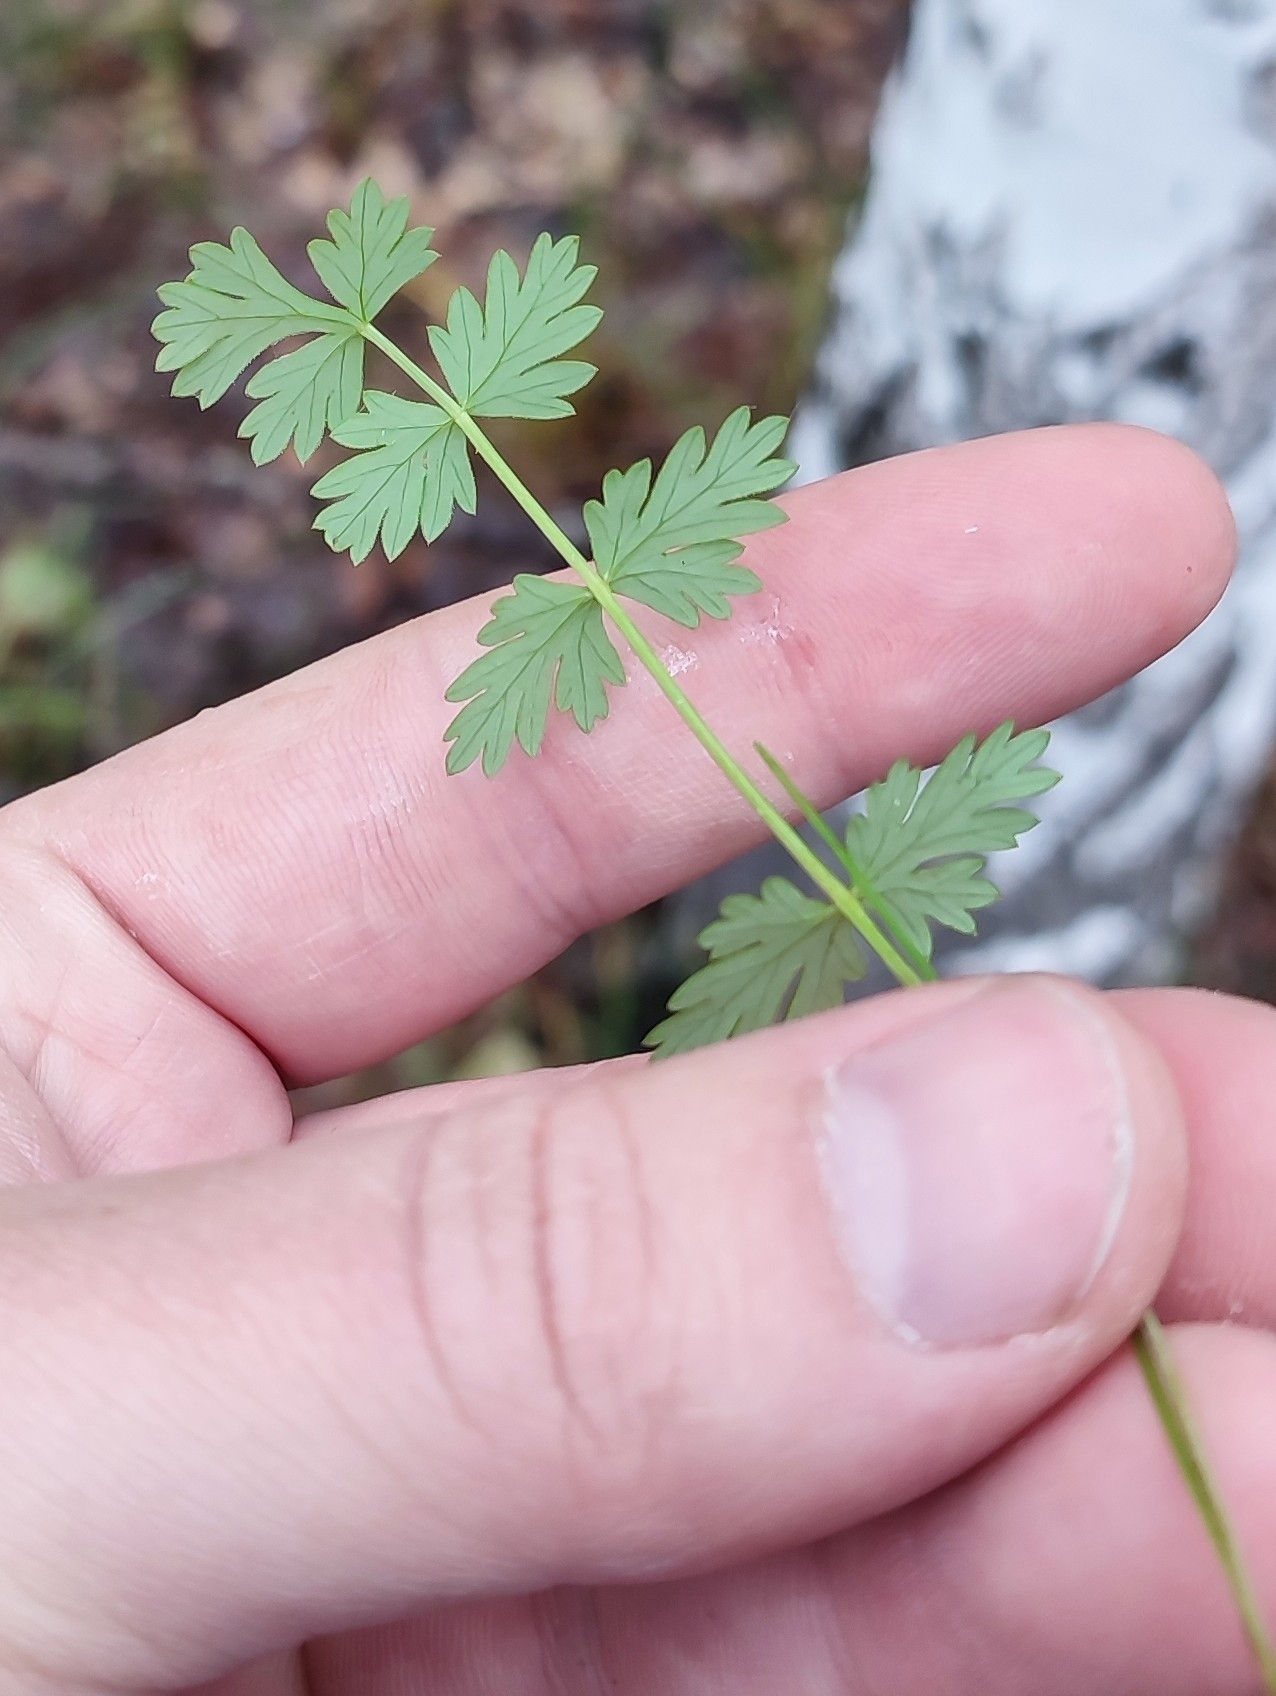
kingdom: Plantae
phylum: Tracheophyta
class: Magnoliopsida
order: Apiales
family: Apiaceae
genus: Pimpinella
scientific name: Pimpinella saxifraga
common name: Burnet-saxifrage
